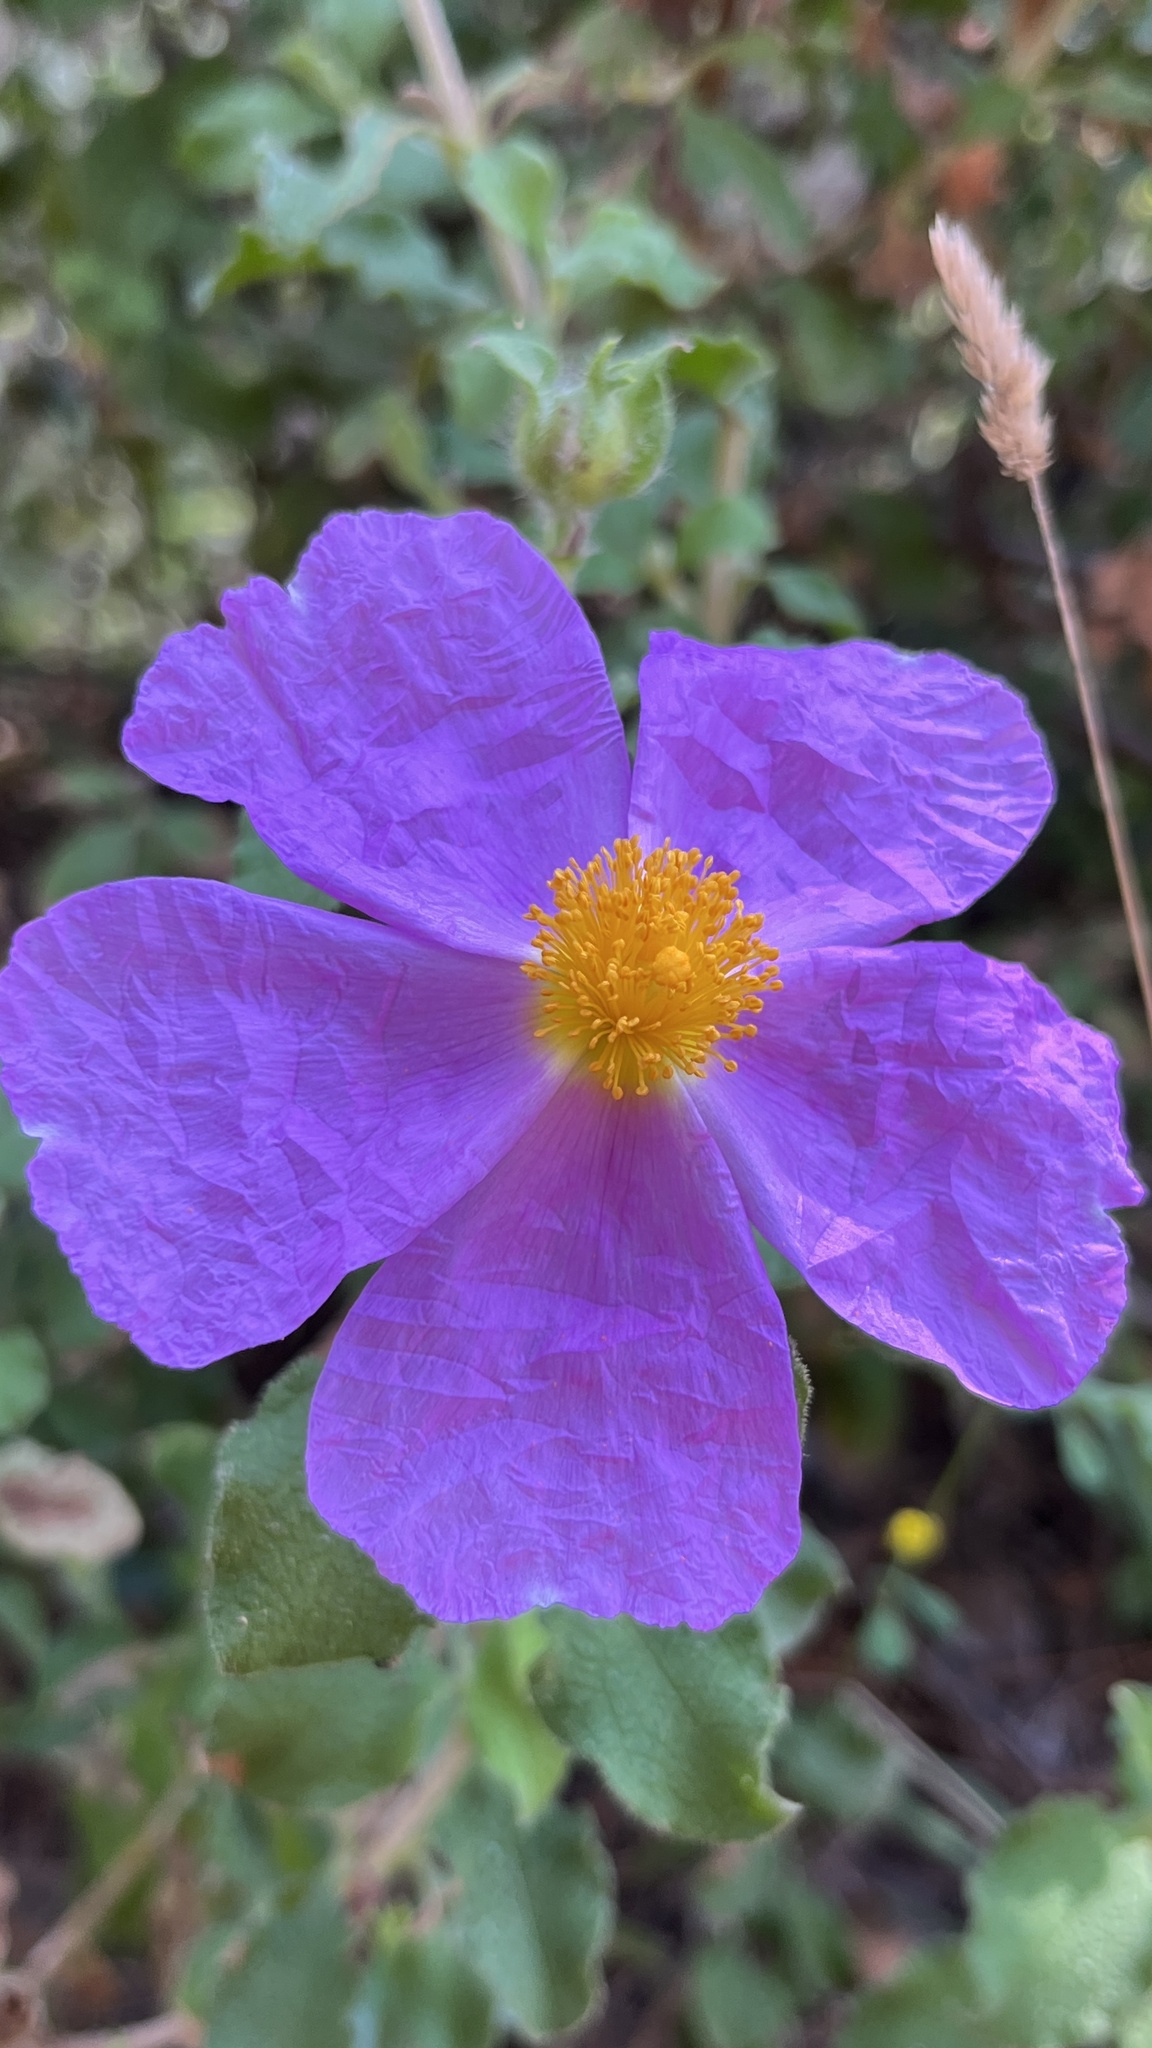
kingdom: Plantae
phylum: Tracheophyta
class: Magnoliopsida
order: Malvales
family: Cistaceae
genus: Cistus
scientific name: Cistus creticus
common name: Cretan rockrose
